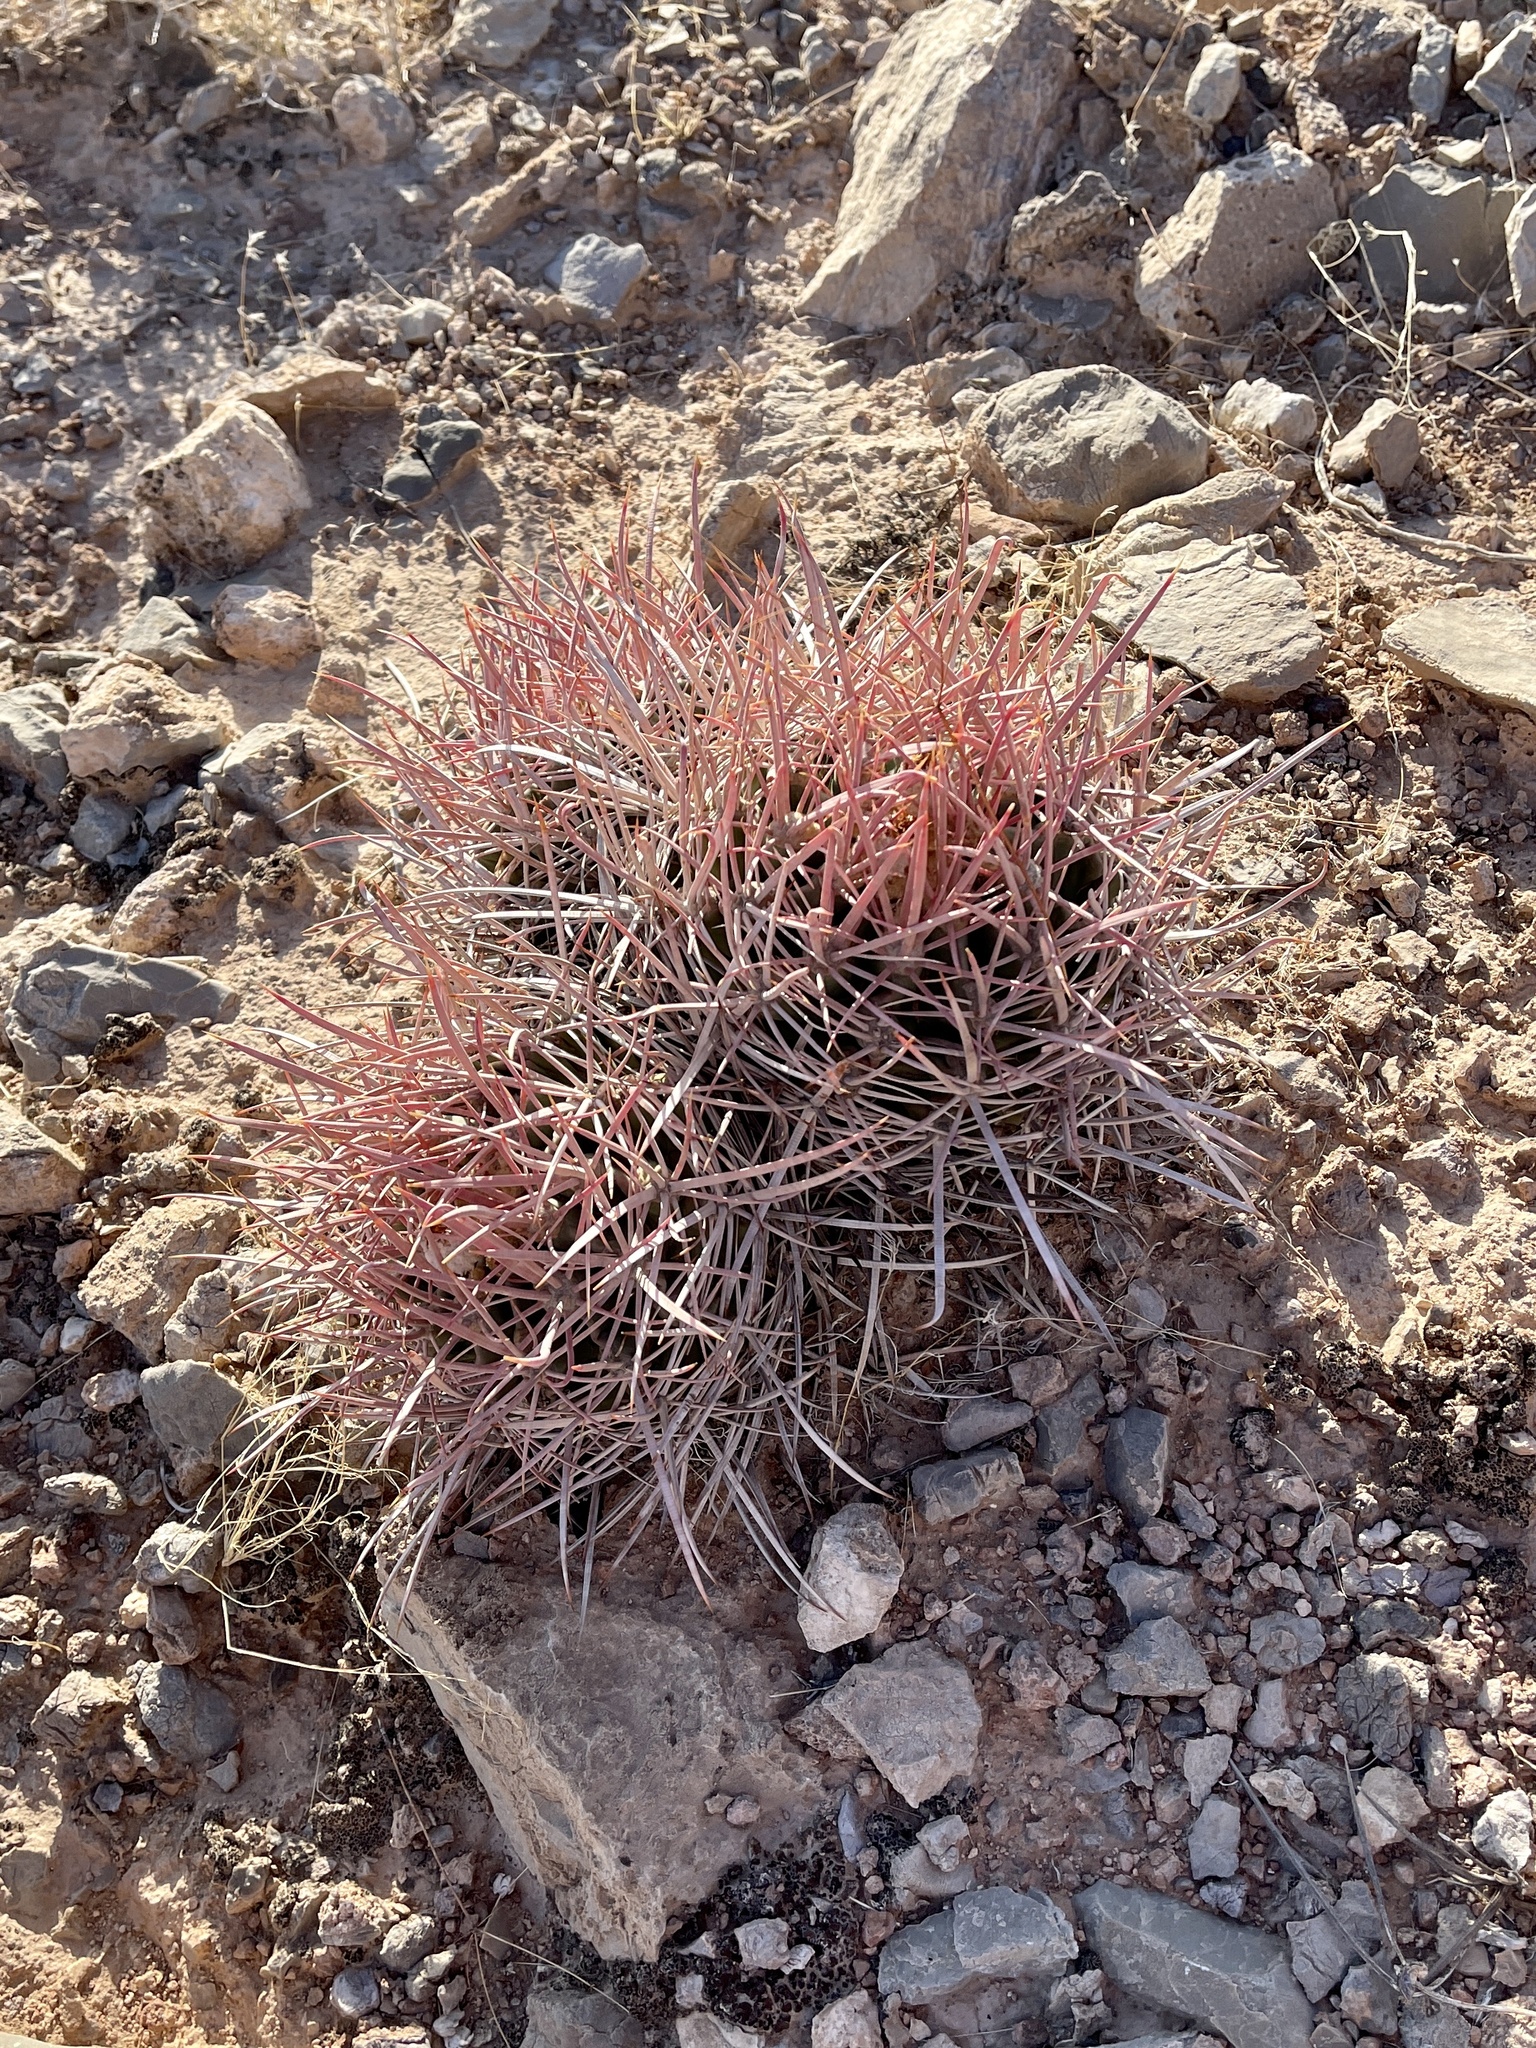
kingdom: Plantae
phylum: Tracheophyta
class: Magnoliopsida
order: Caryophyllales
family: Cactaceae
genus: Echinocactus
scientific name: Echinocactus polycephalus
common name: Cottontop cactus
